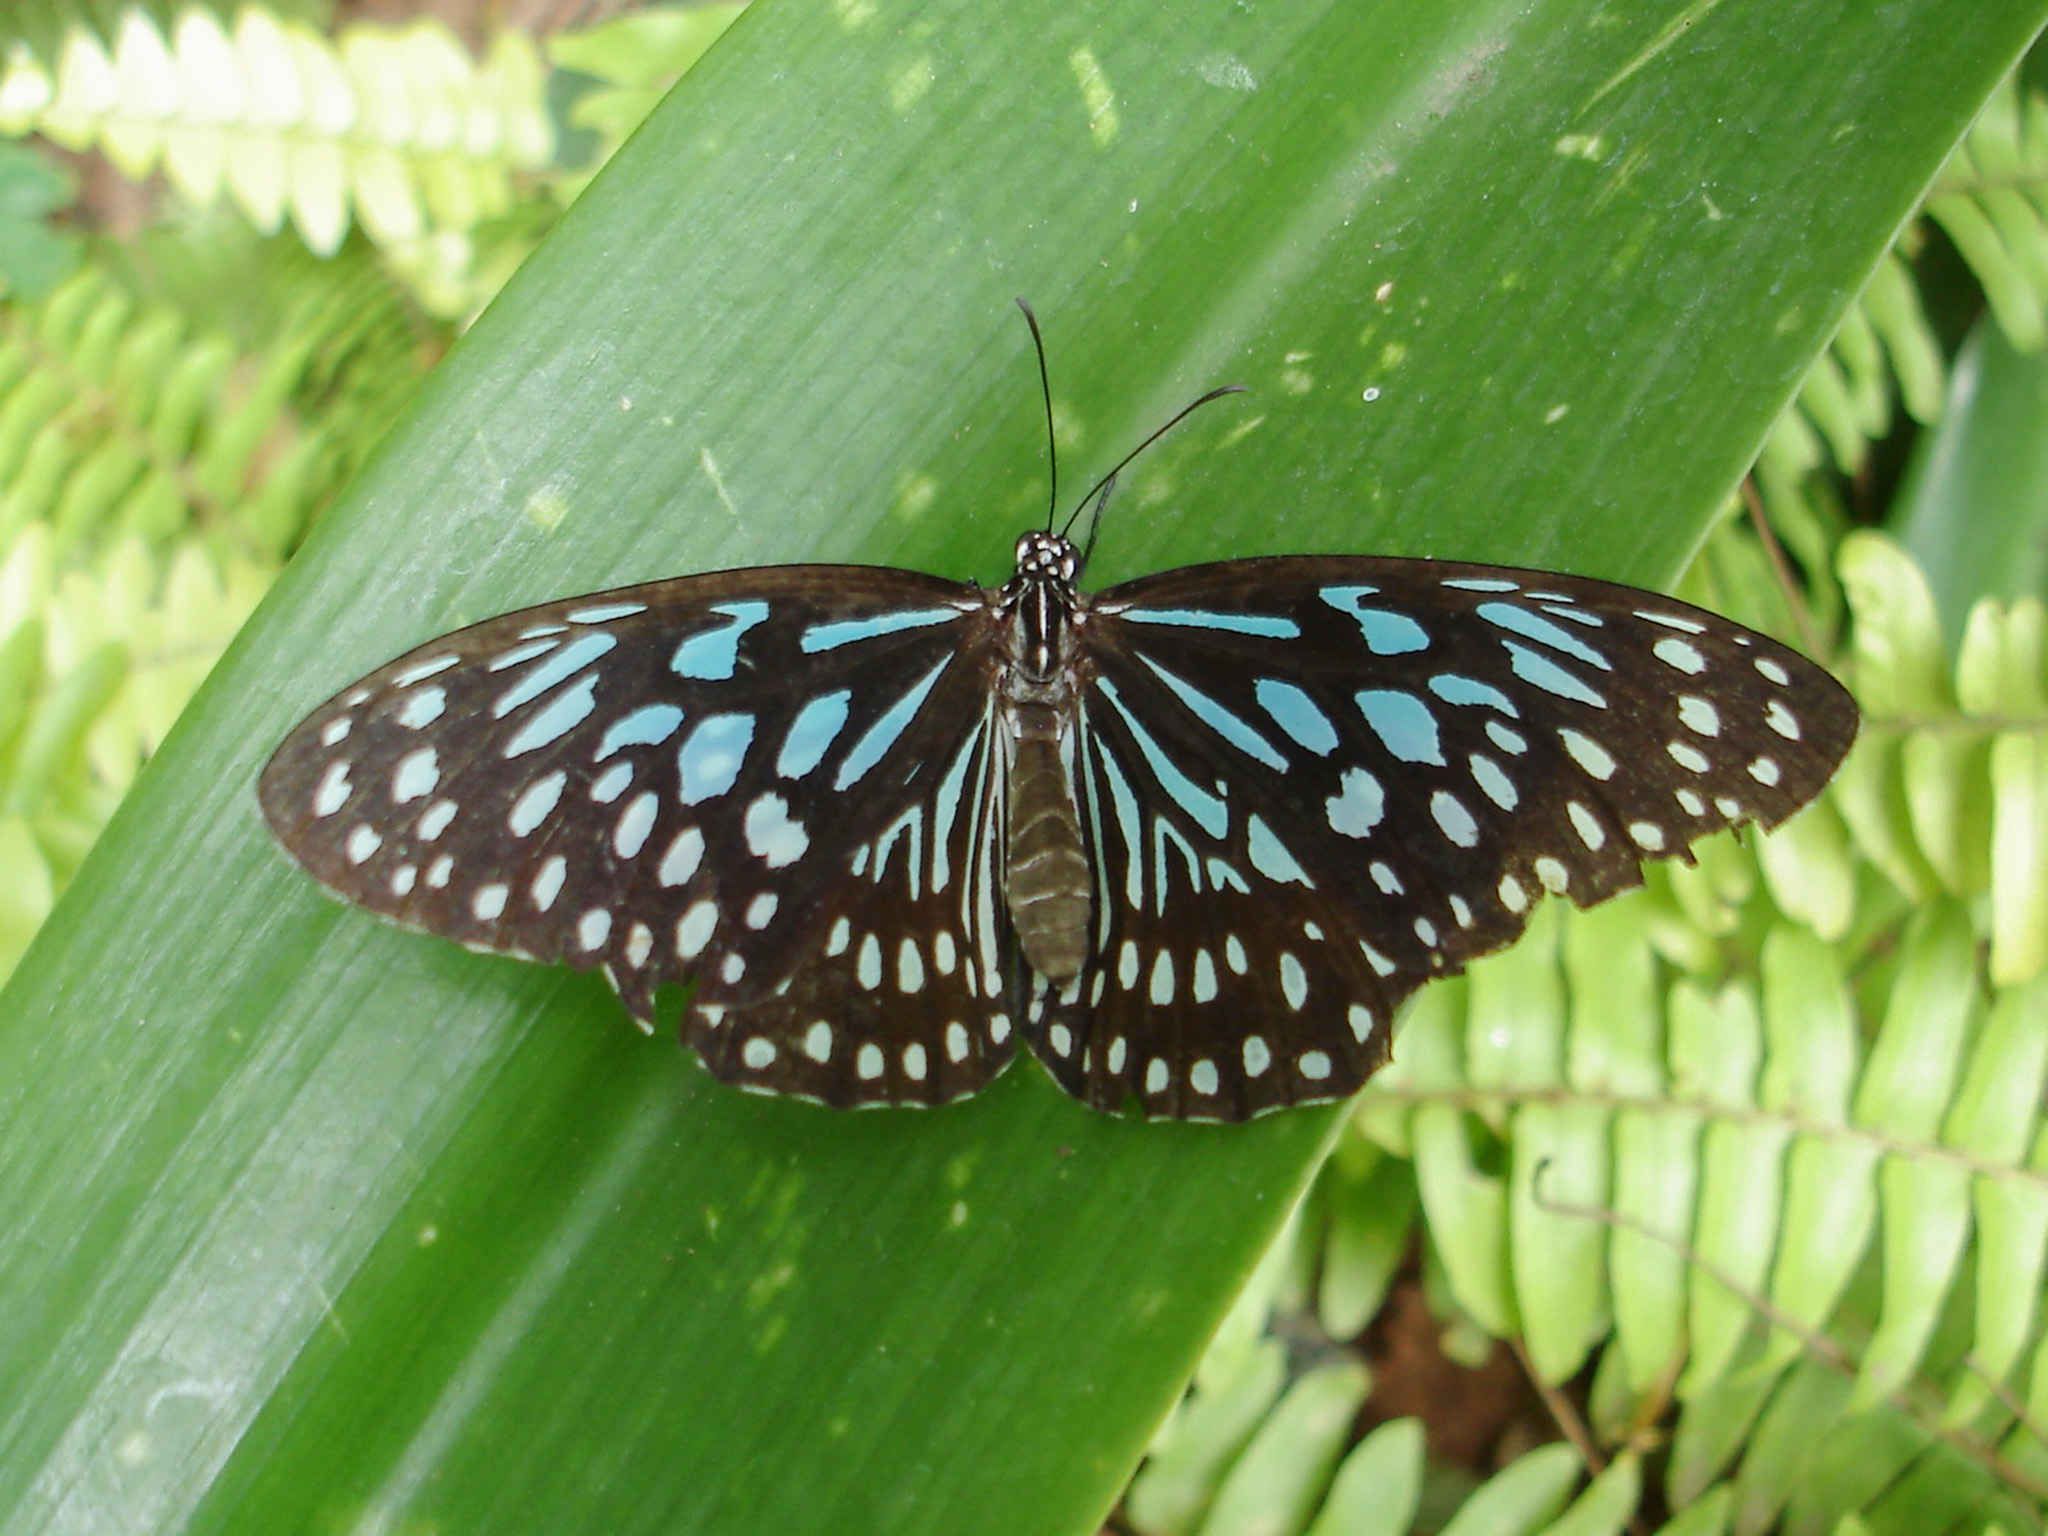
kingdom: Animalia
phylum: Arthropoda
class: Insecta
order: Lepidoptera
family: Nymphalidae
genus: Tirumala
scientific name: Tirumala septentrionis
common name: Dark blue tiger butterfly
